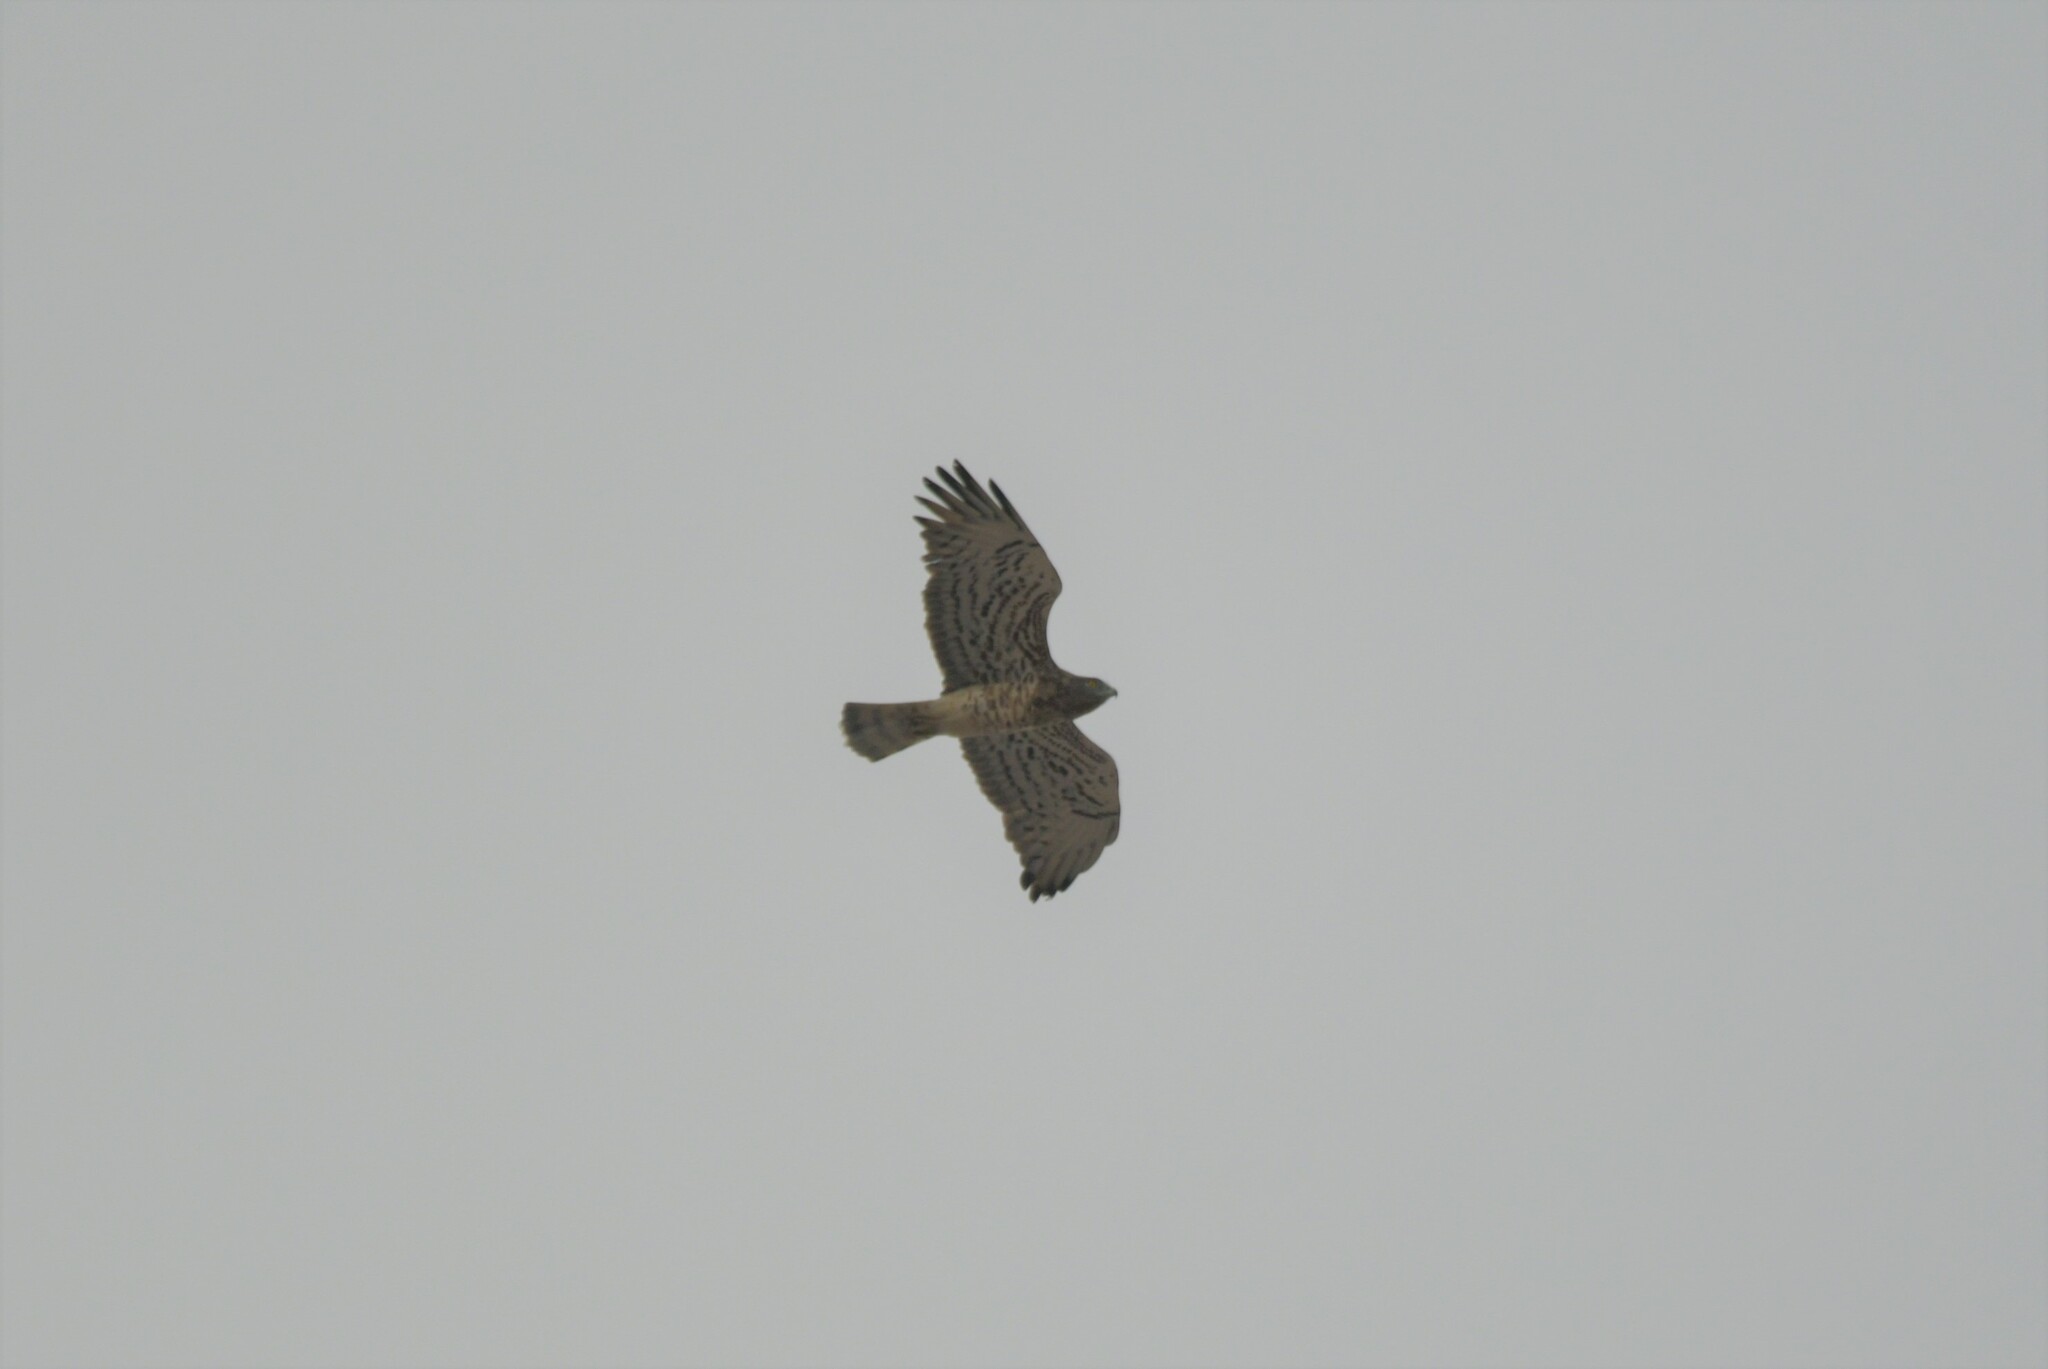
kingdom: Animalia
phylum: Chordata
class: Aves
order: Accipitriformes
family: Accipitridae
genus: Circaetus
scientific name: Circaetus gallicus
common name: Short-toed snake eagle
